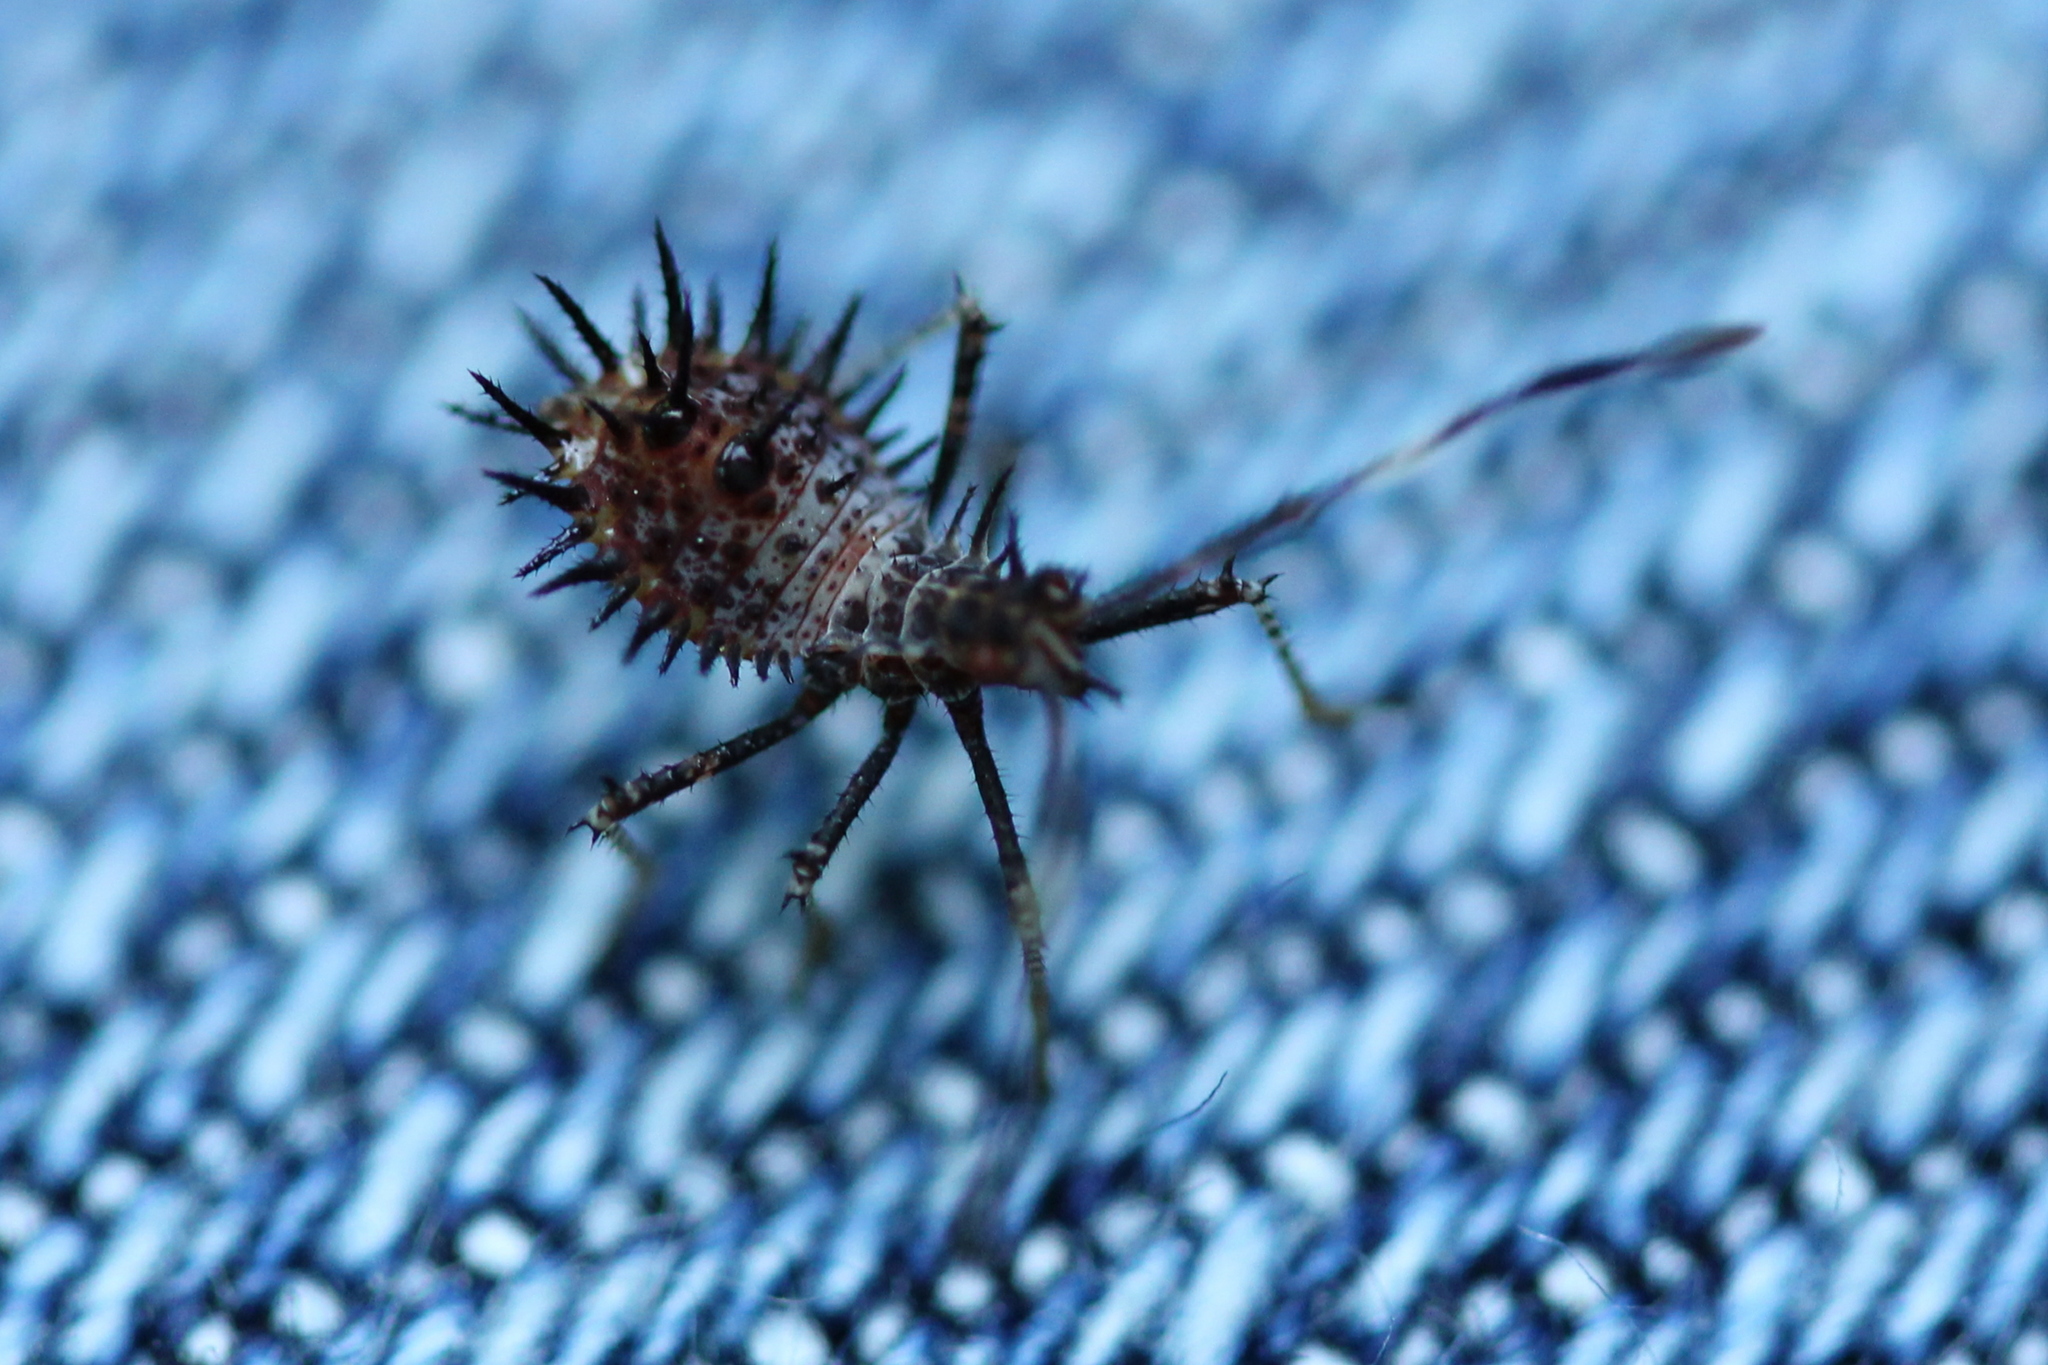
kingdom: Animalia
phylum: Arthropoda
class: Insecta
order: Hemiptera
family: Coreidae
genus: Euthochtha
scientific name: Euthochtha galeator
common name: Helmeted squash bug
